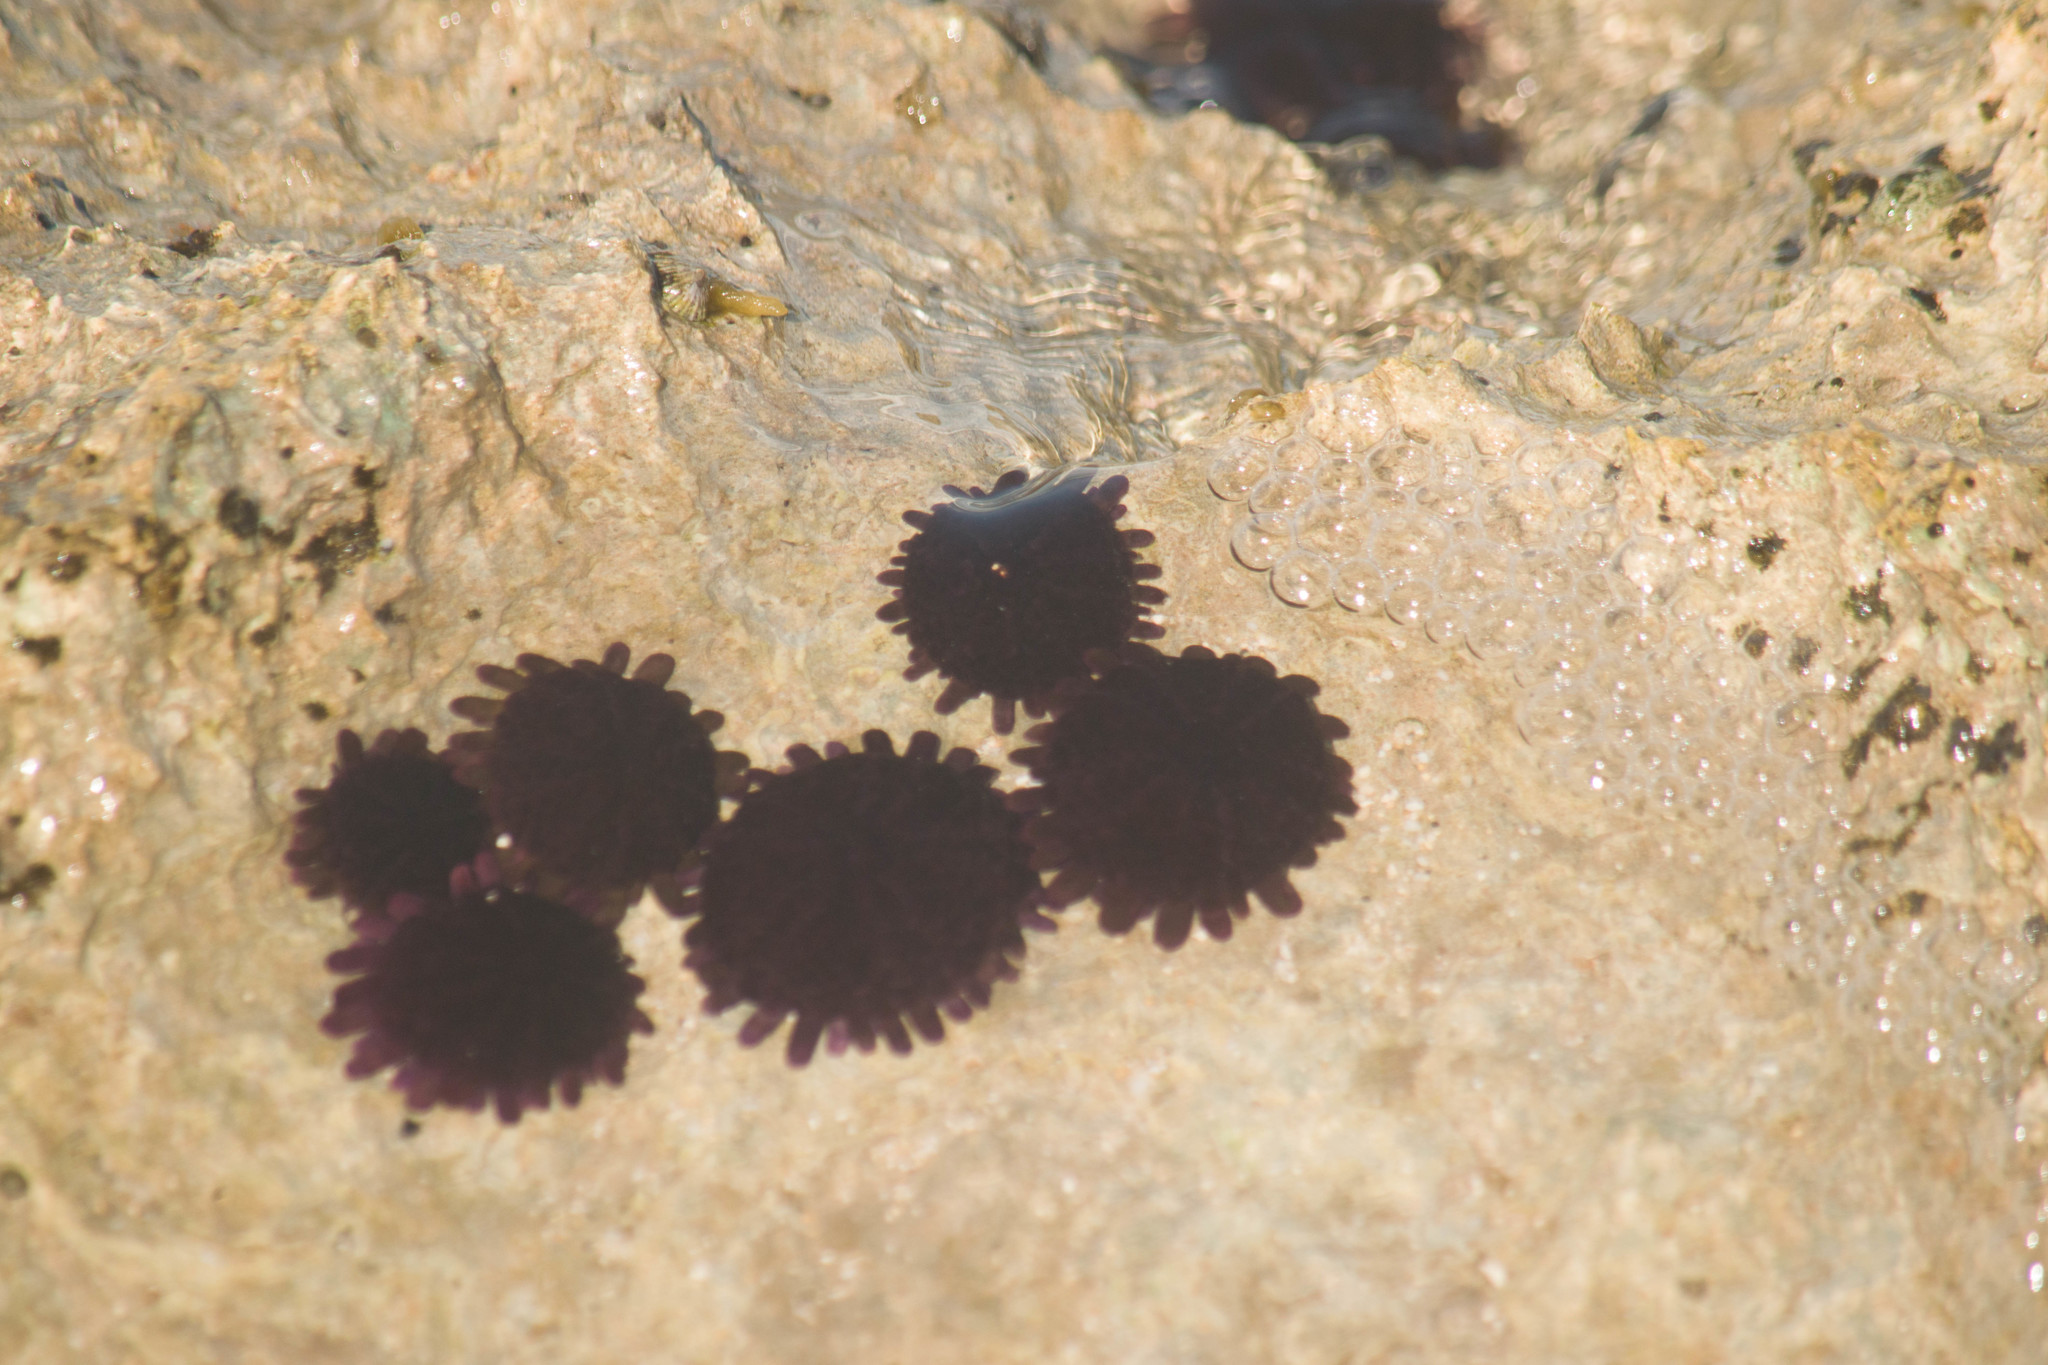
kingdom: Animalia
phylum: Echinodermata
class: Echinoidea
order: Camarodonta
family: Echinometridae
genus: Colobocentrotus
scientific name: Colobocentrotus atratus
